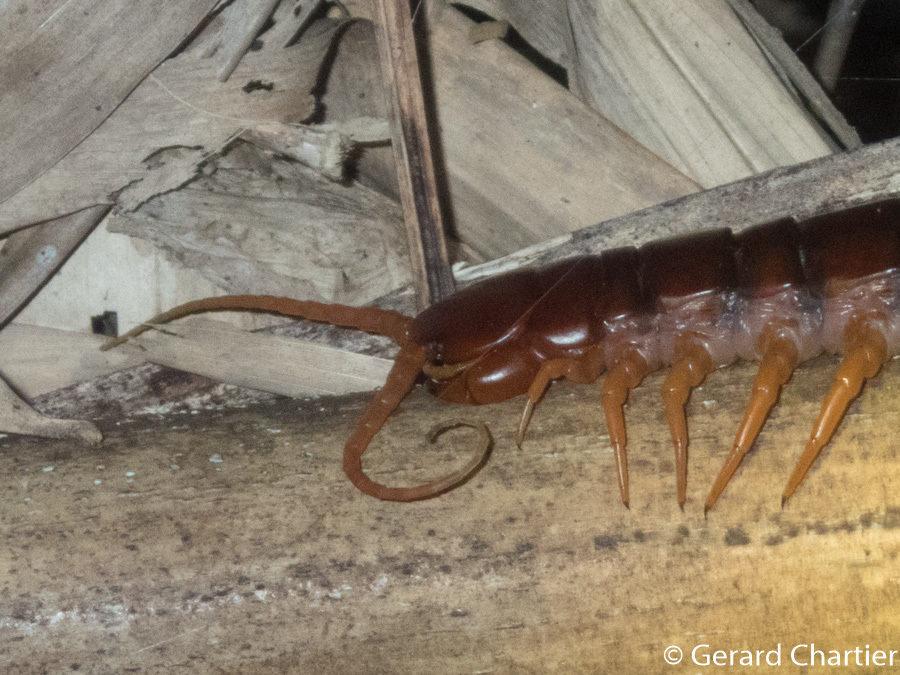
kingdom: Animalia
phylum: Arthropoda
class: Chilopoda
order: Scolopendromorpha
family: Scolopendridae
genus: Scolopendra
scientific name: Scolopendra dehaani
